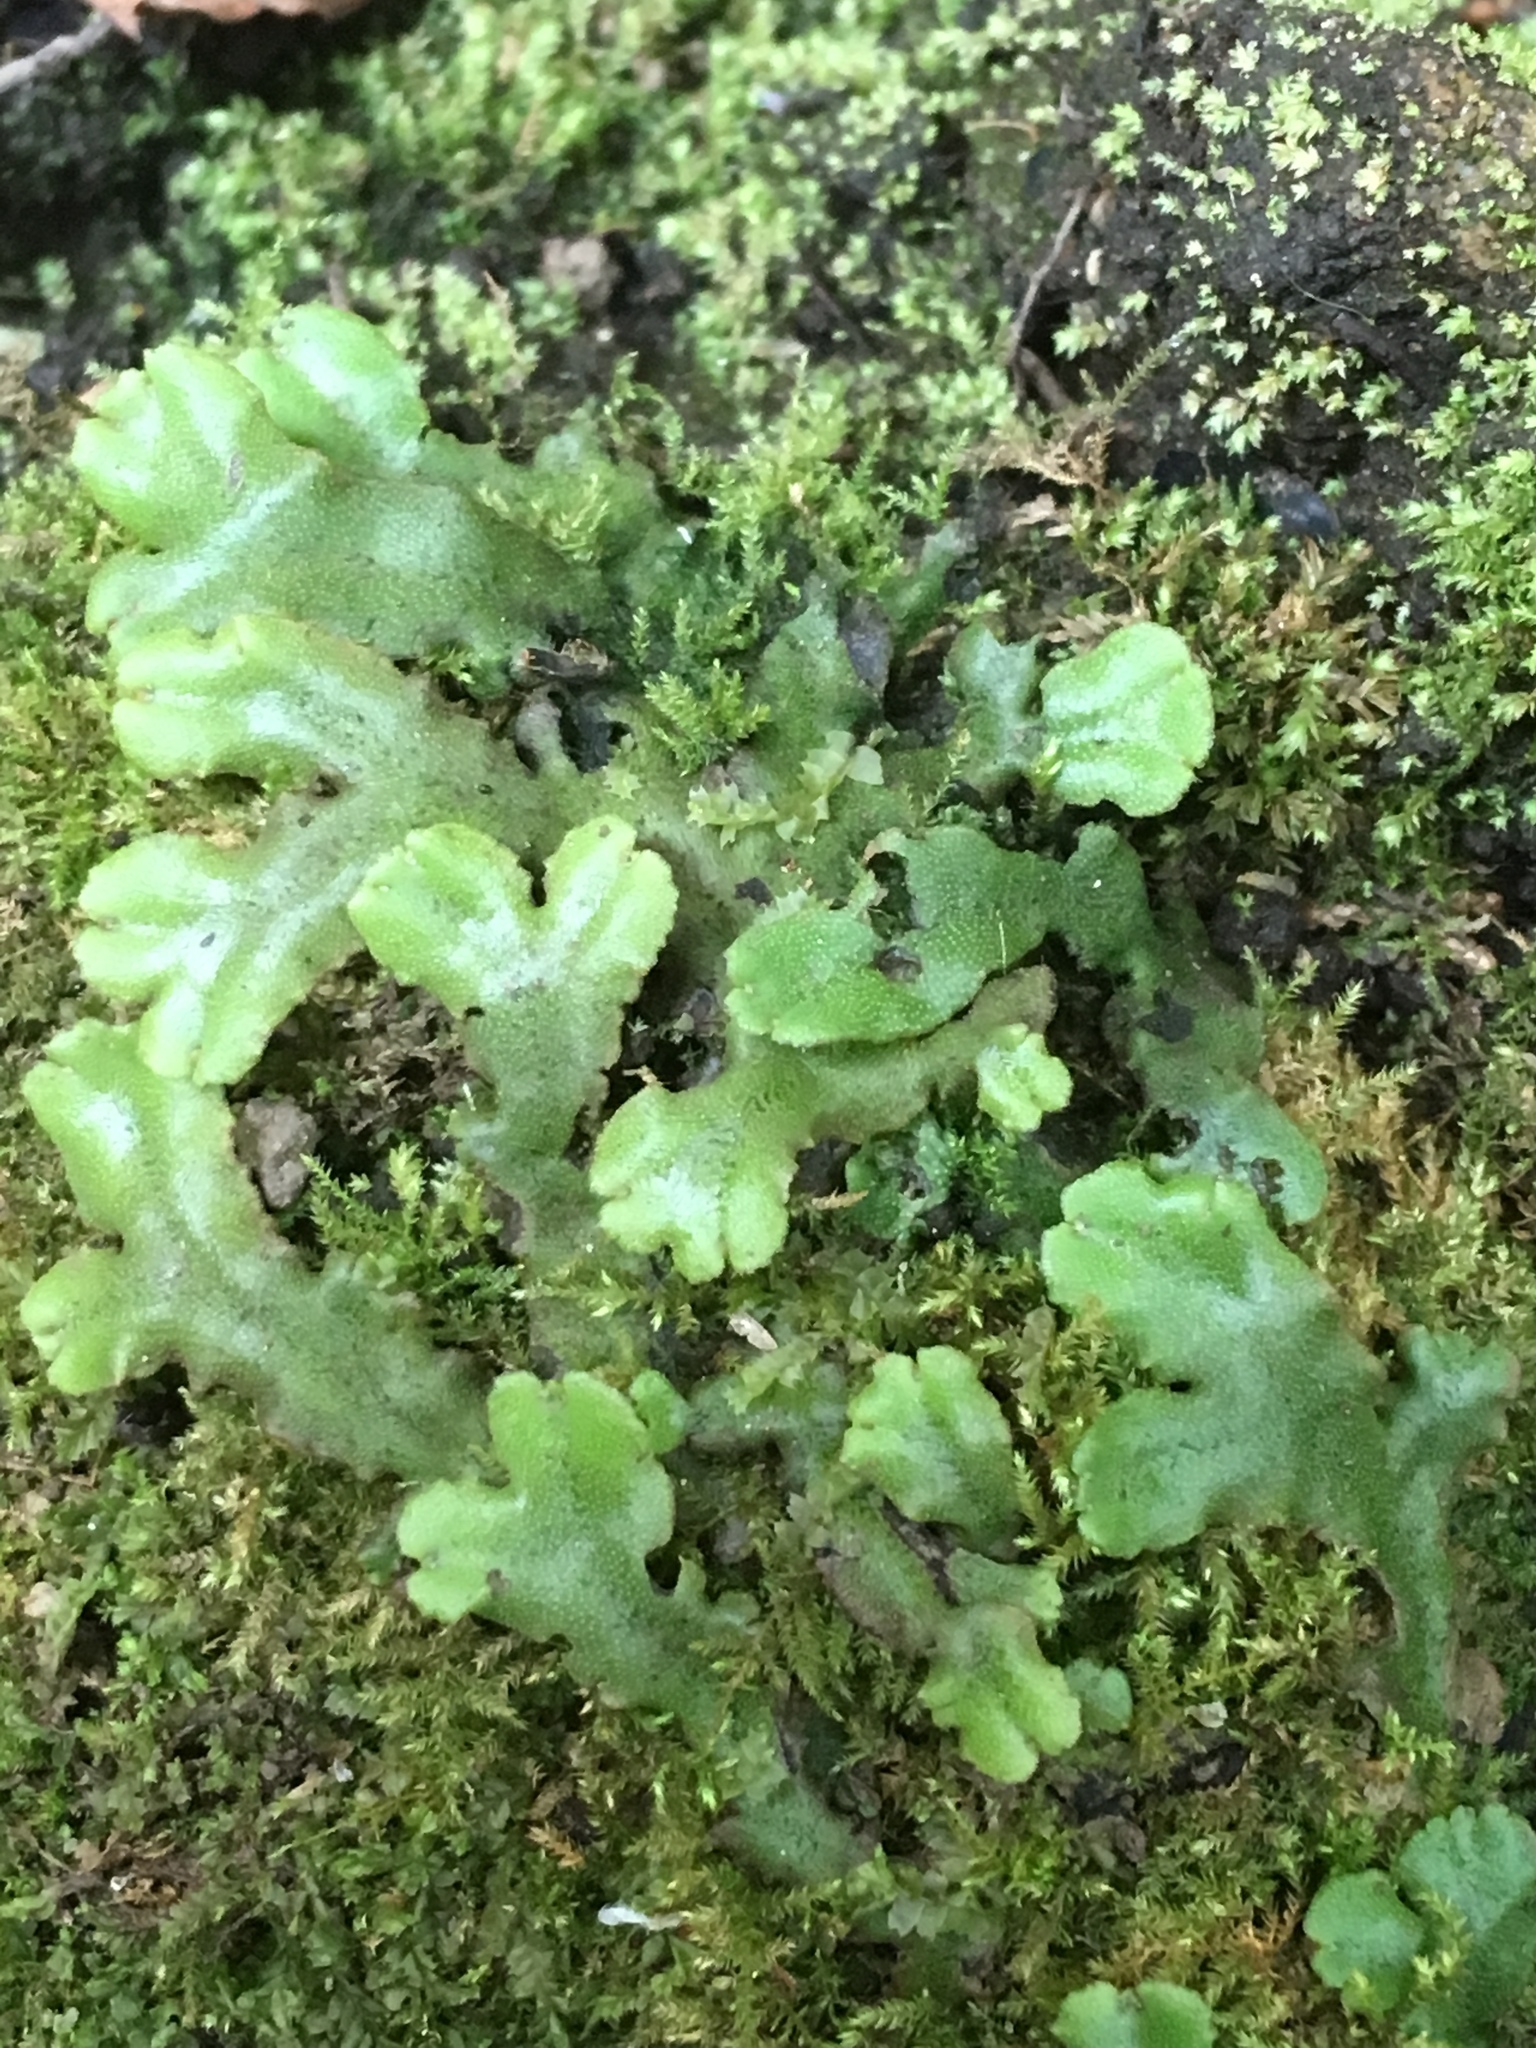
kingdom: Plantae
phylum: Marchantiophyta
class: Marchantiopsida
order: Marchantiales
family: Marchantiaceae
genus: Marchantia
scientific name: Marchantia polymorpha
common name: Common liverwort
